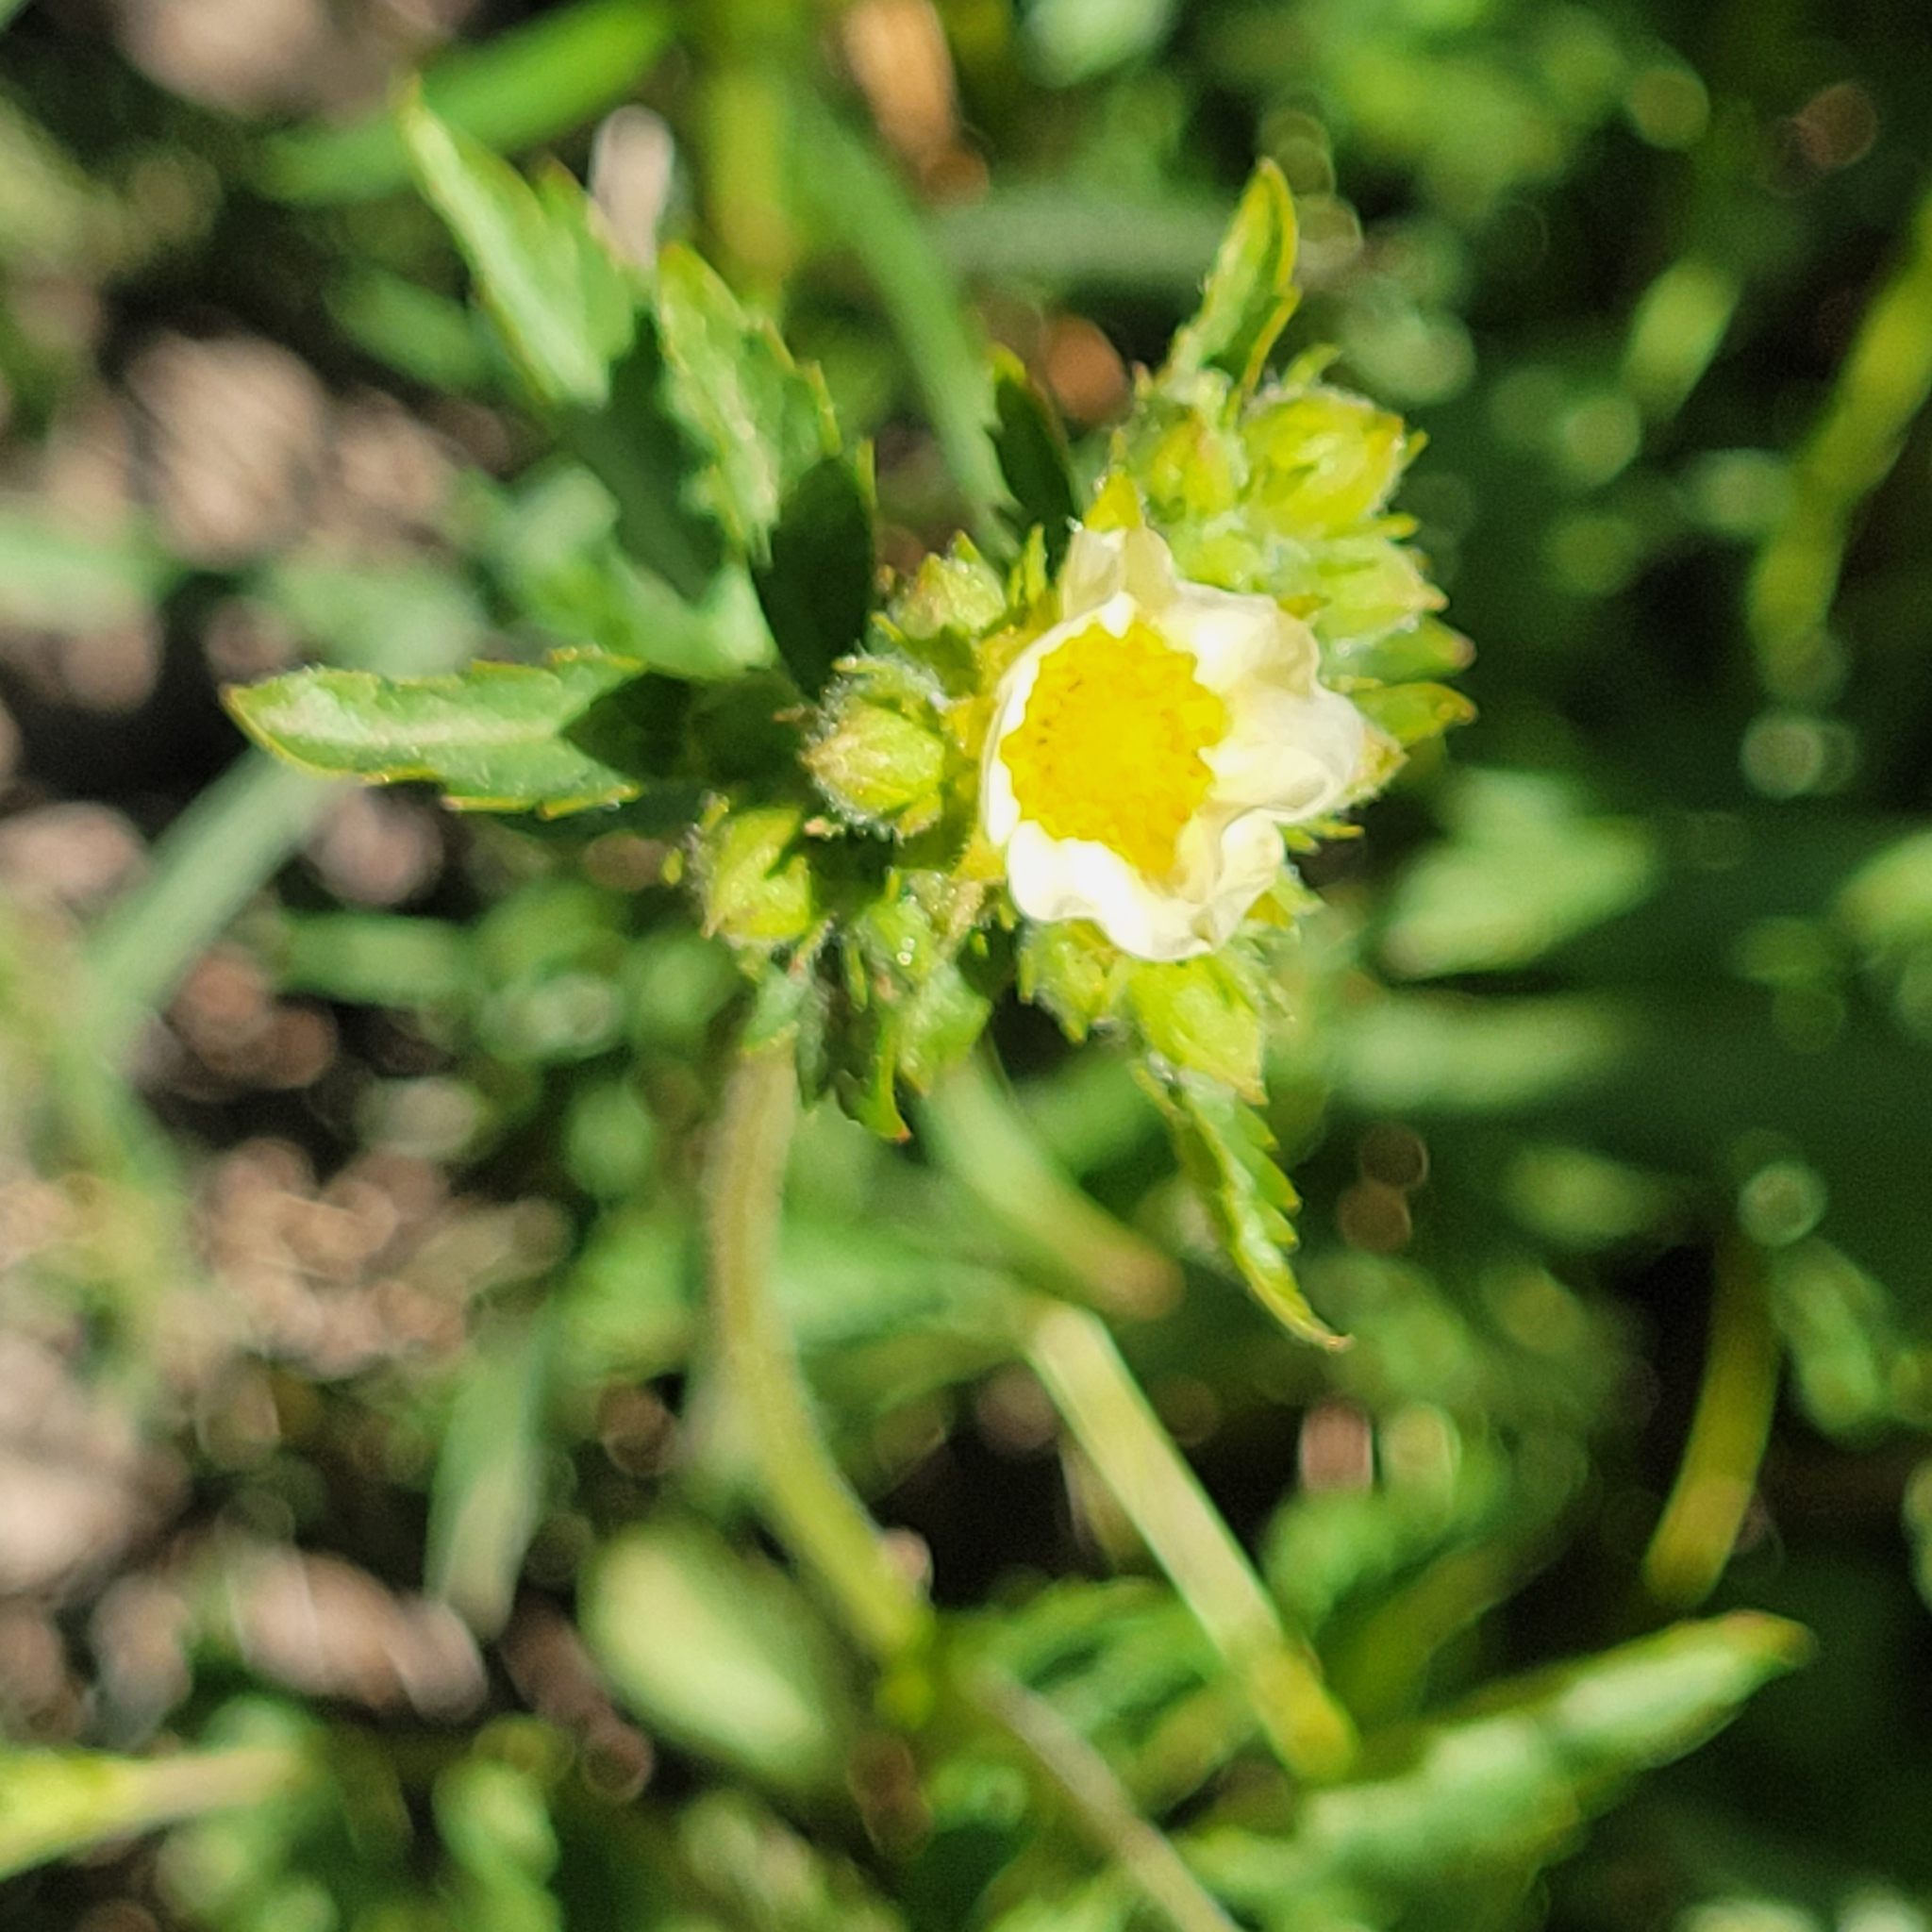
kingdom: Plantae
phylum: Tracheophyta
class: Magnoliopsida
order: Rosales
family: Rosaceae
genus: Drymocallis
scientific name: Drymocallis glandulosa
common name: Sticky cinquefoil
